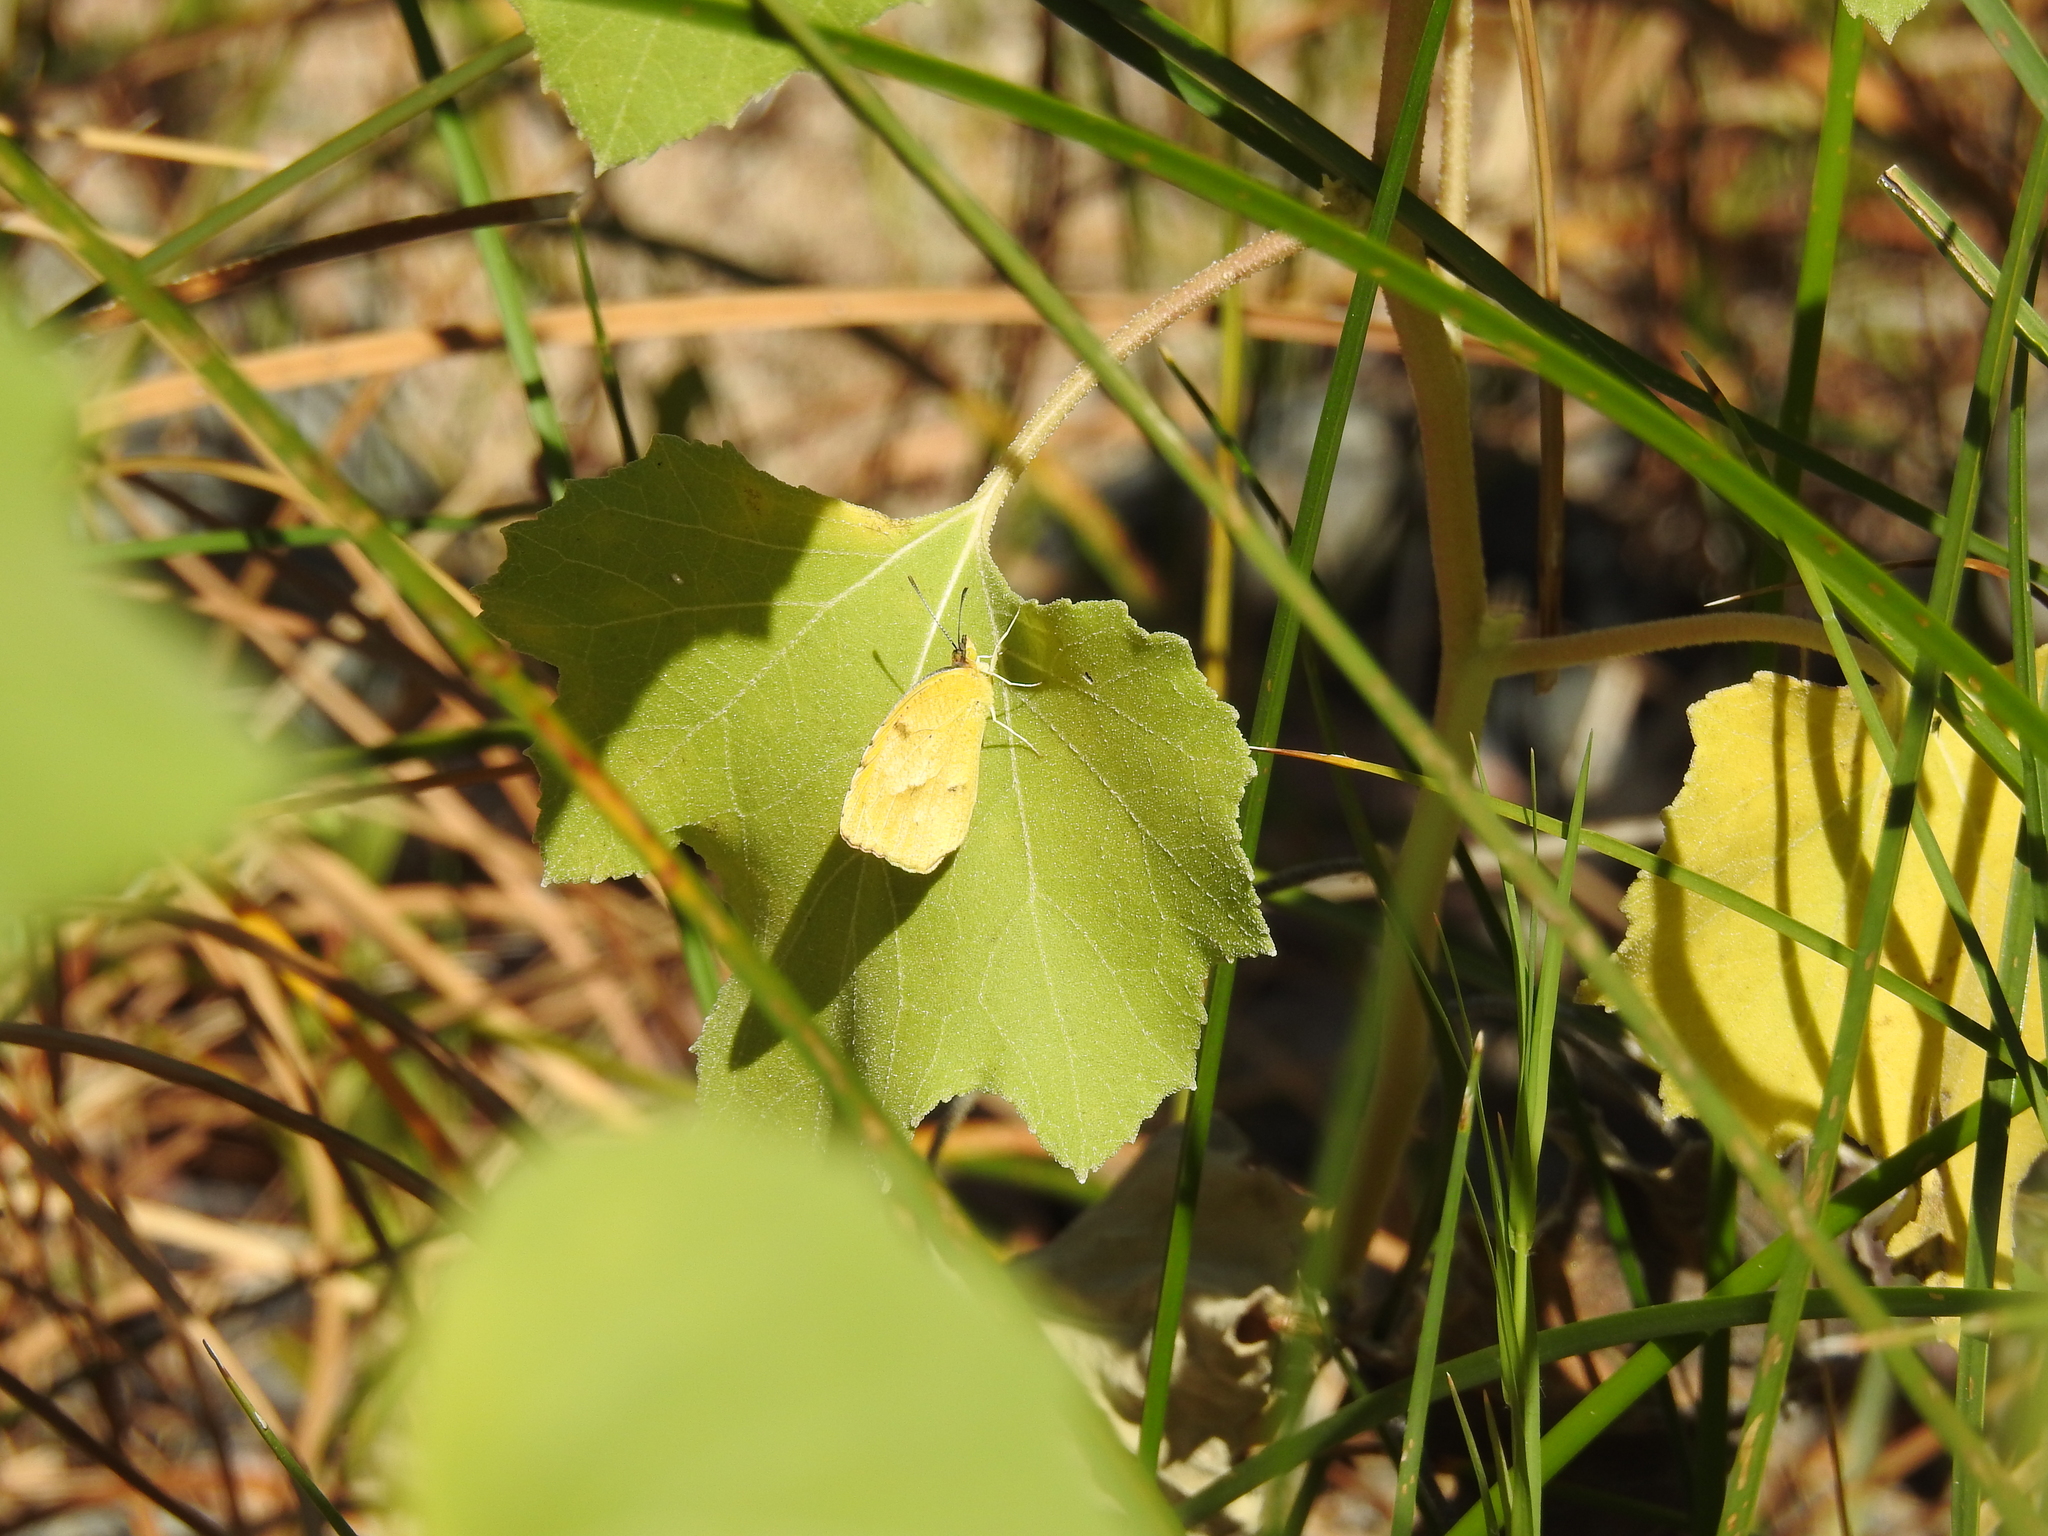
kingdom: Animalia
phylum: Arthropoda
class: Insecta
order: Lepidoptera
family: Pieridae
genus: Abaeis
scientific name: Abaeis nicippe
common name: Sleepy orange
